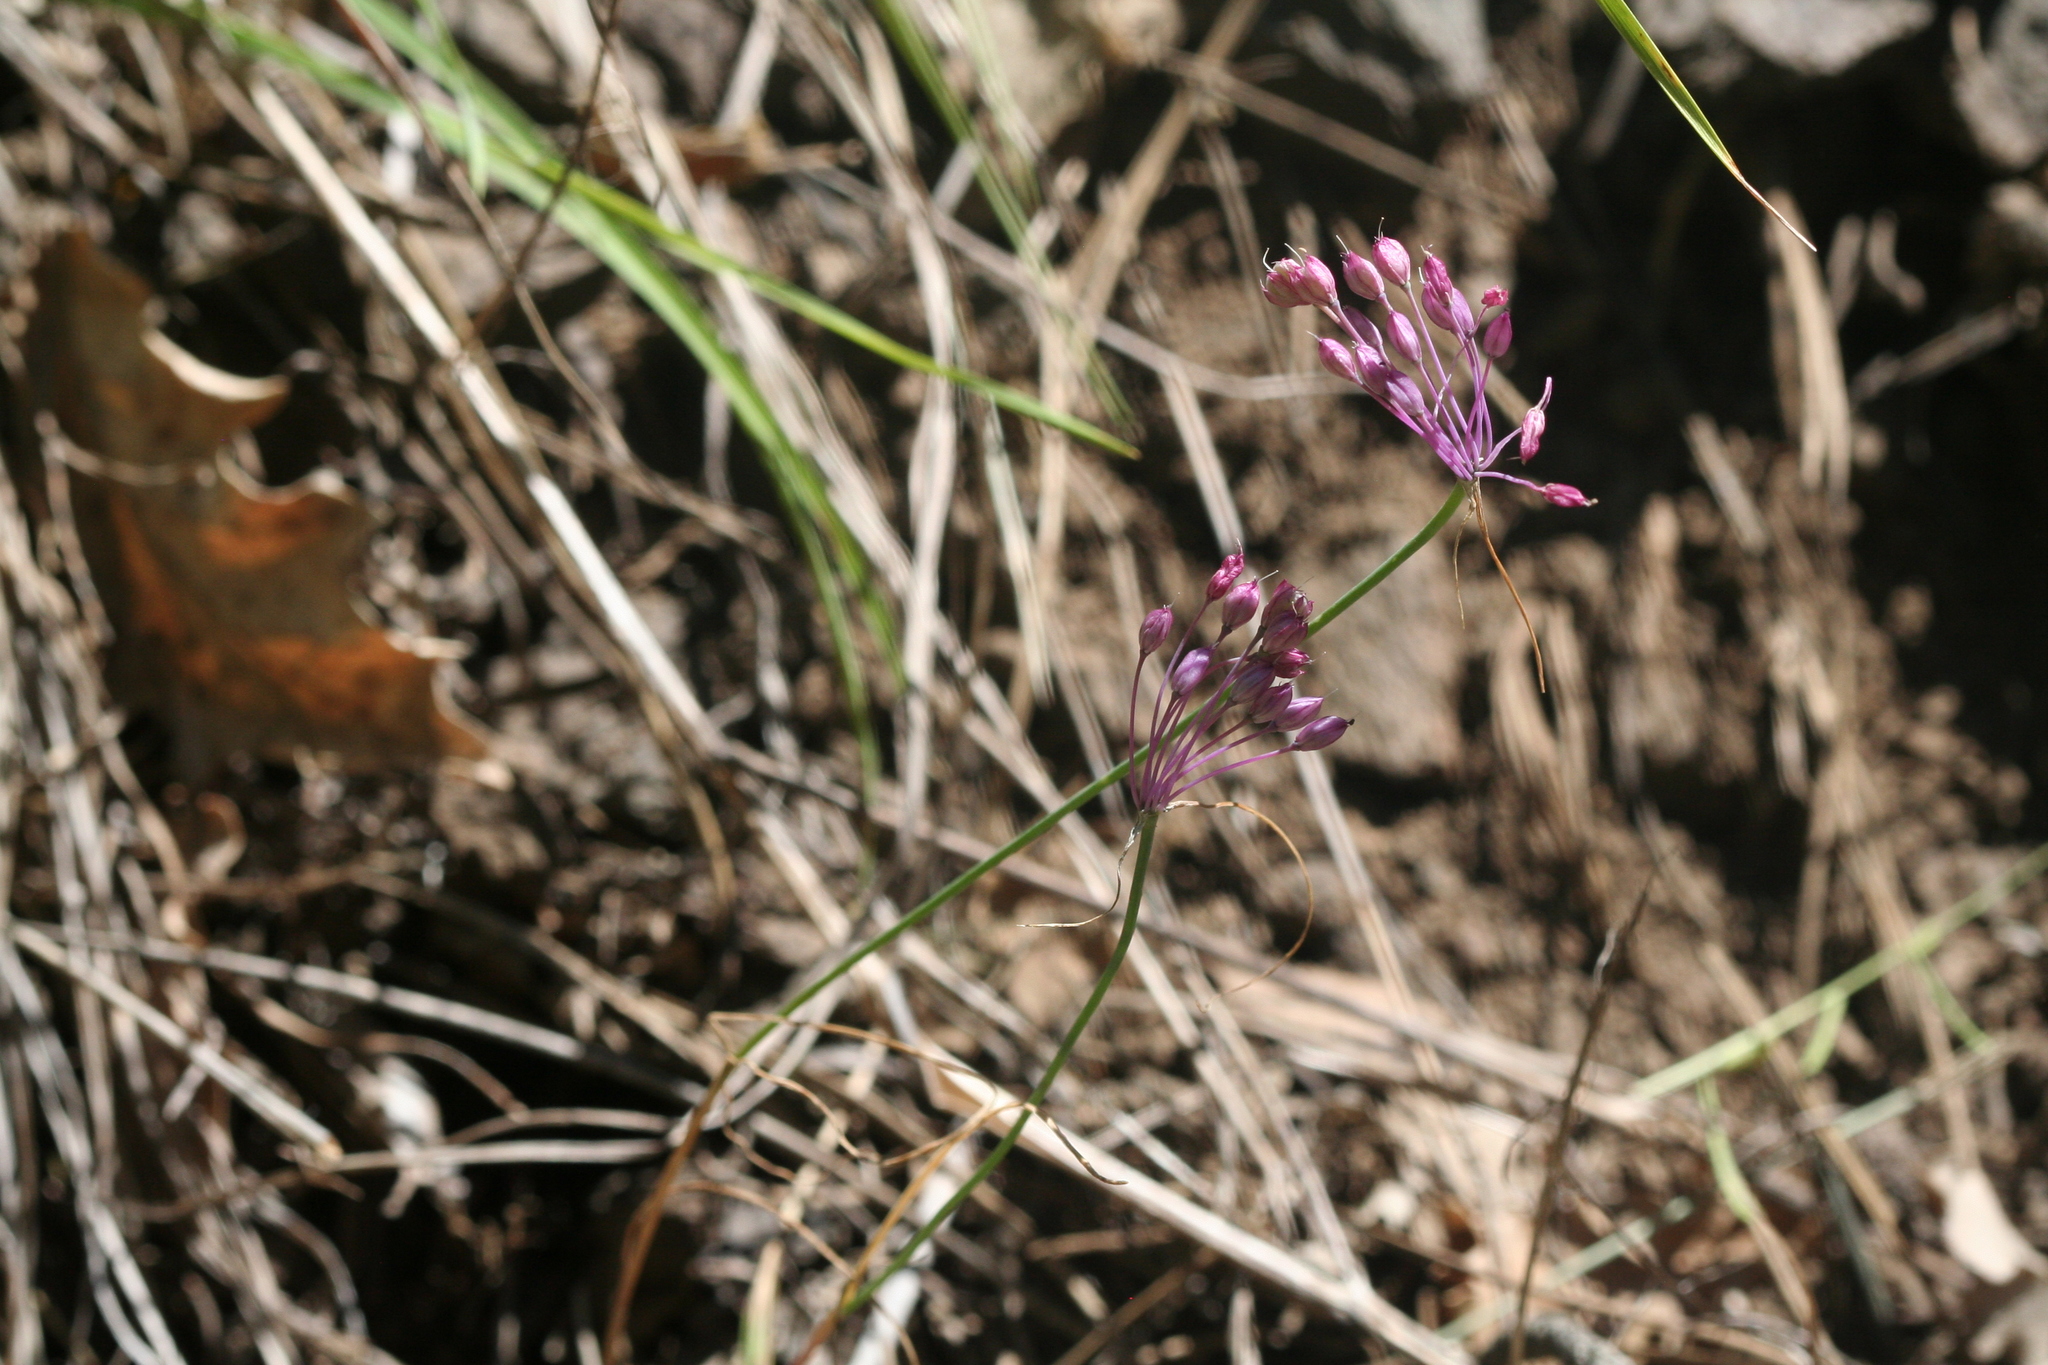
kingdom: Plantae
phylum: Tracheophyta
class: Liliopsida
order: Asparagales
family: Amaryllidaceae
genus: Allium
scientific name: Allium coloratum
